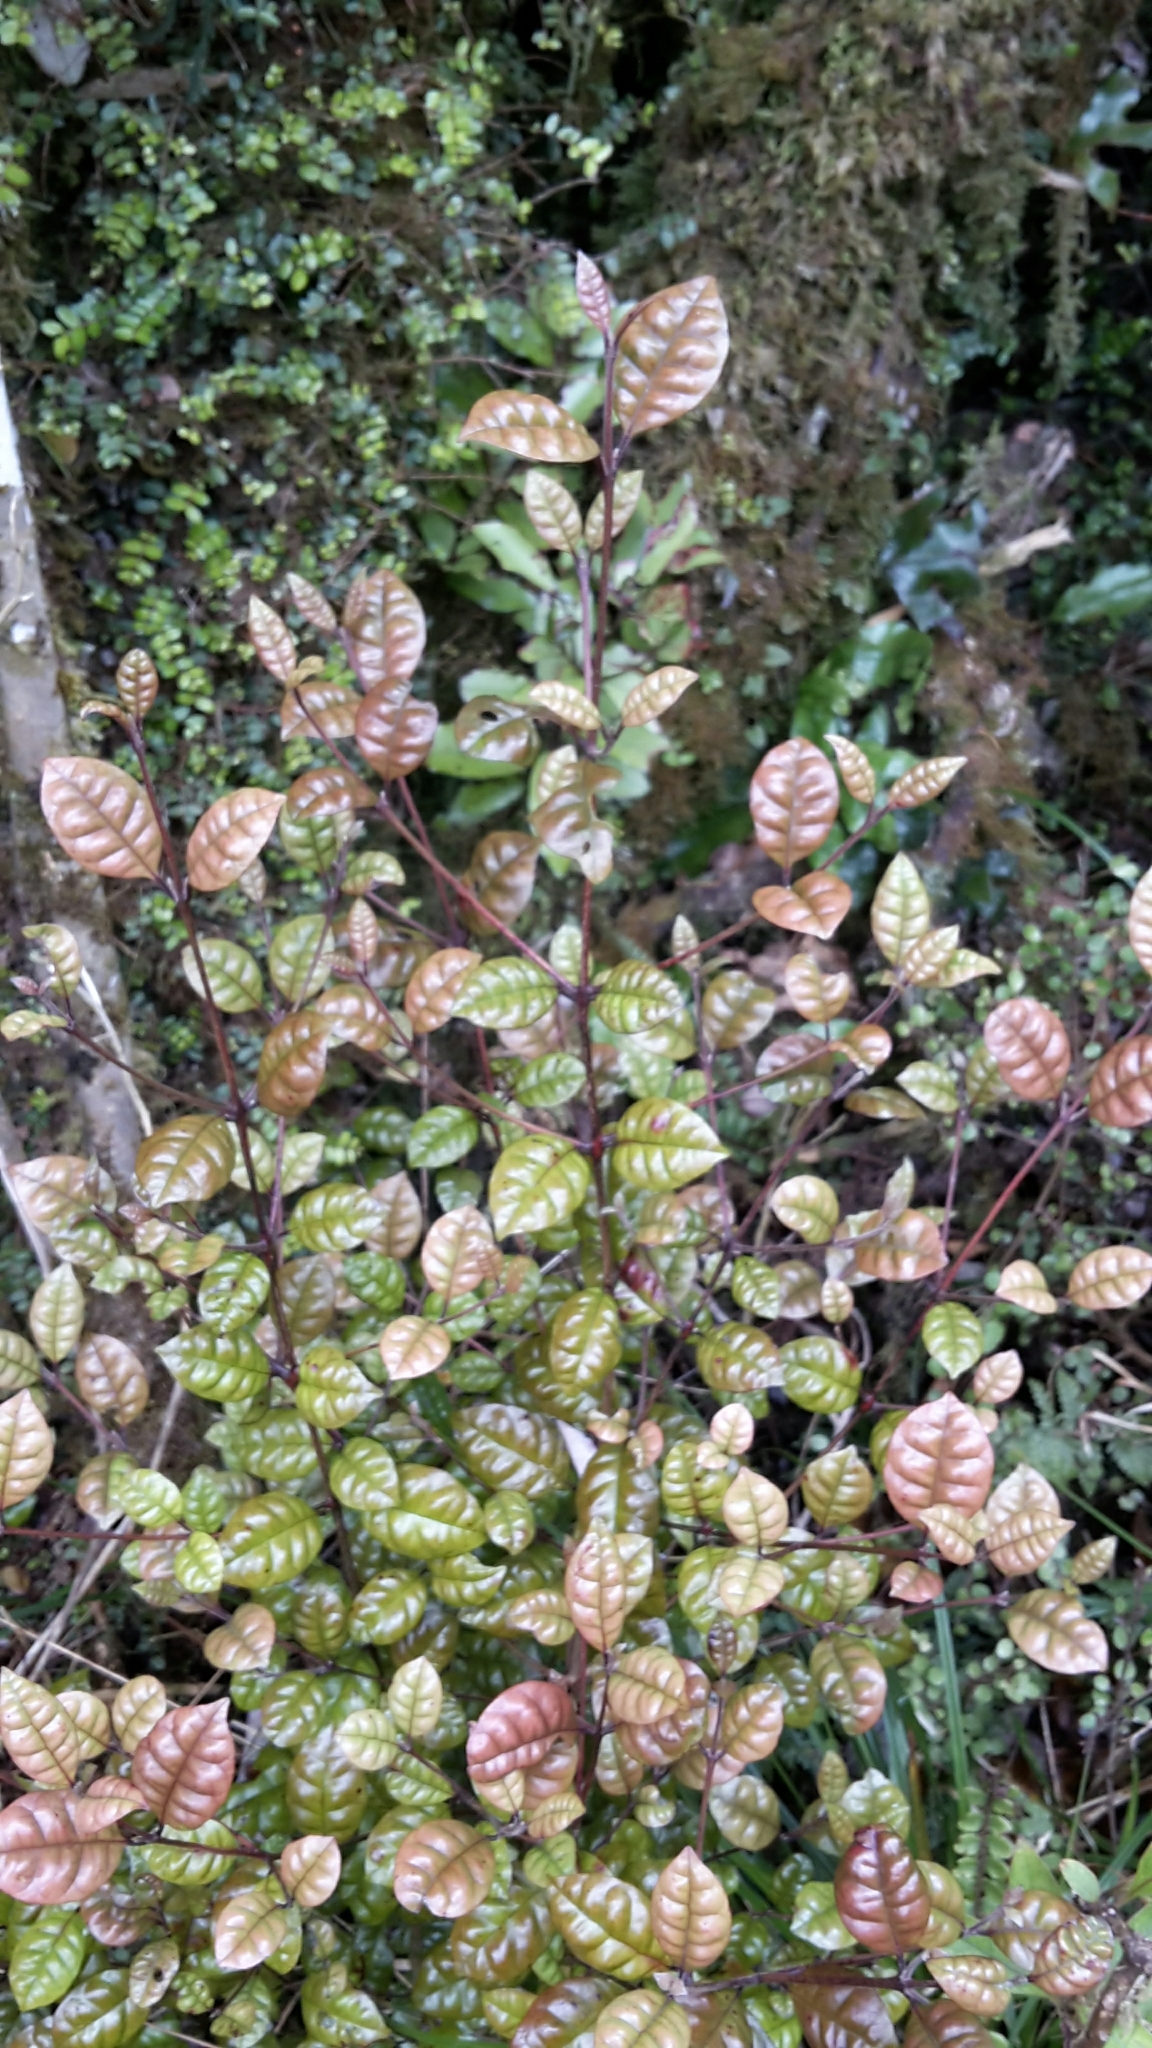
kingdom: Plantae
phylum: Tracheophyta
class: Magnoliopsida
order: Myrtales
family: Myrtaceae
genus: Lophomyrtus
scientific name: Lophomyrtus bullata
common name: Rama rama
